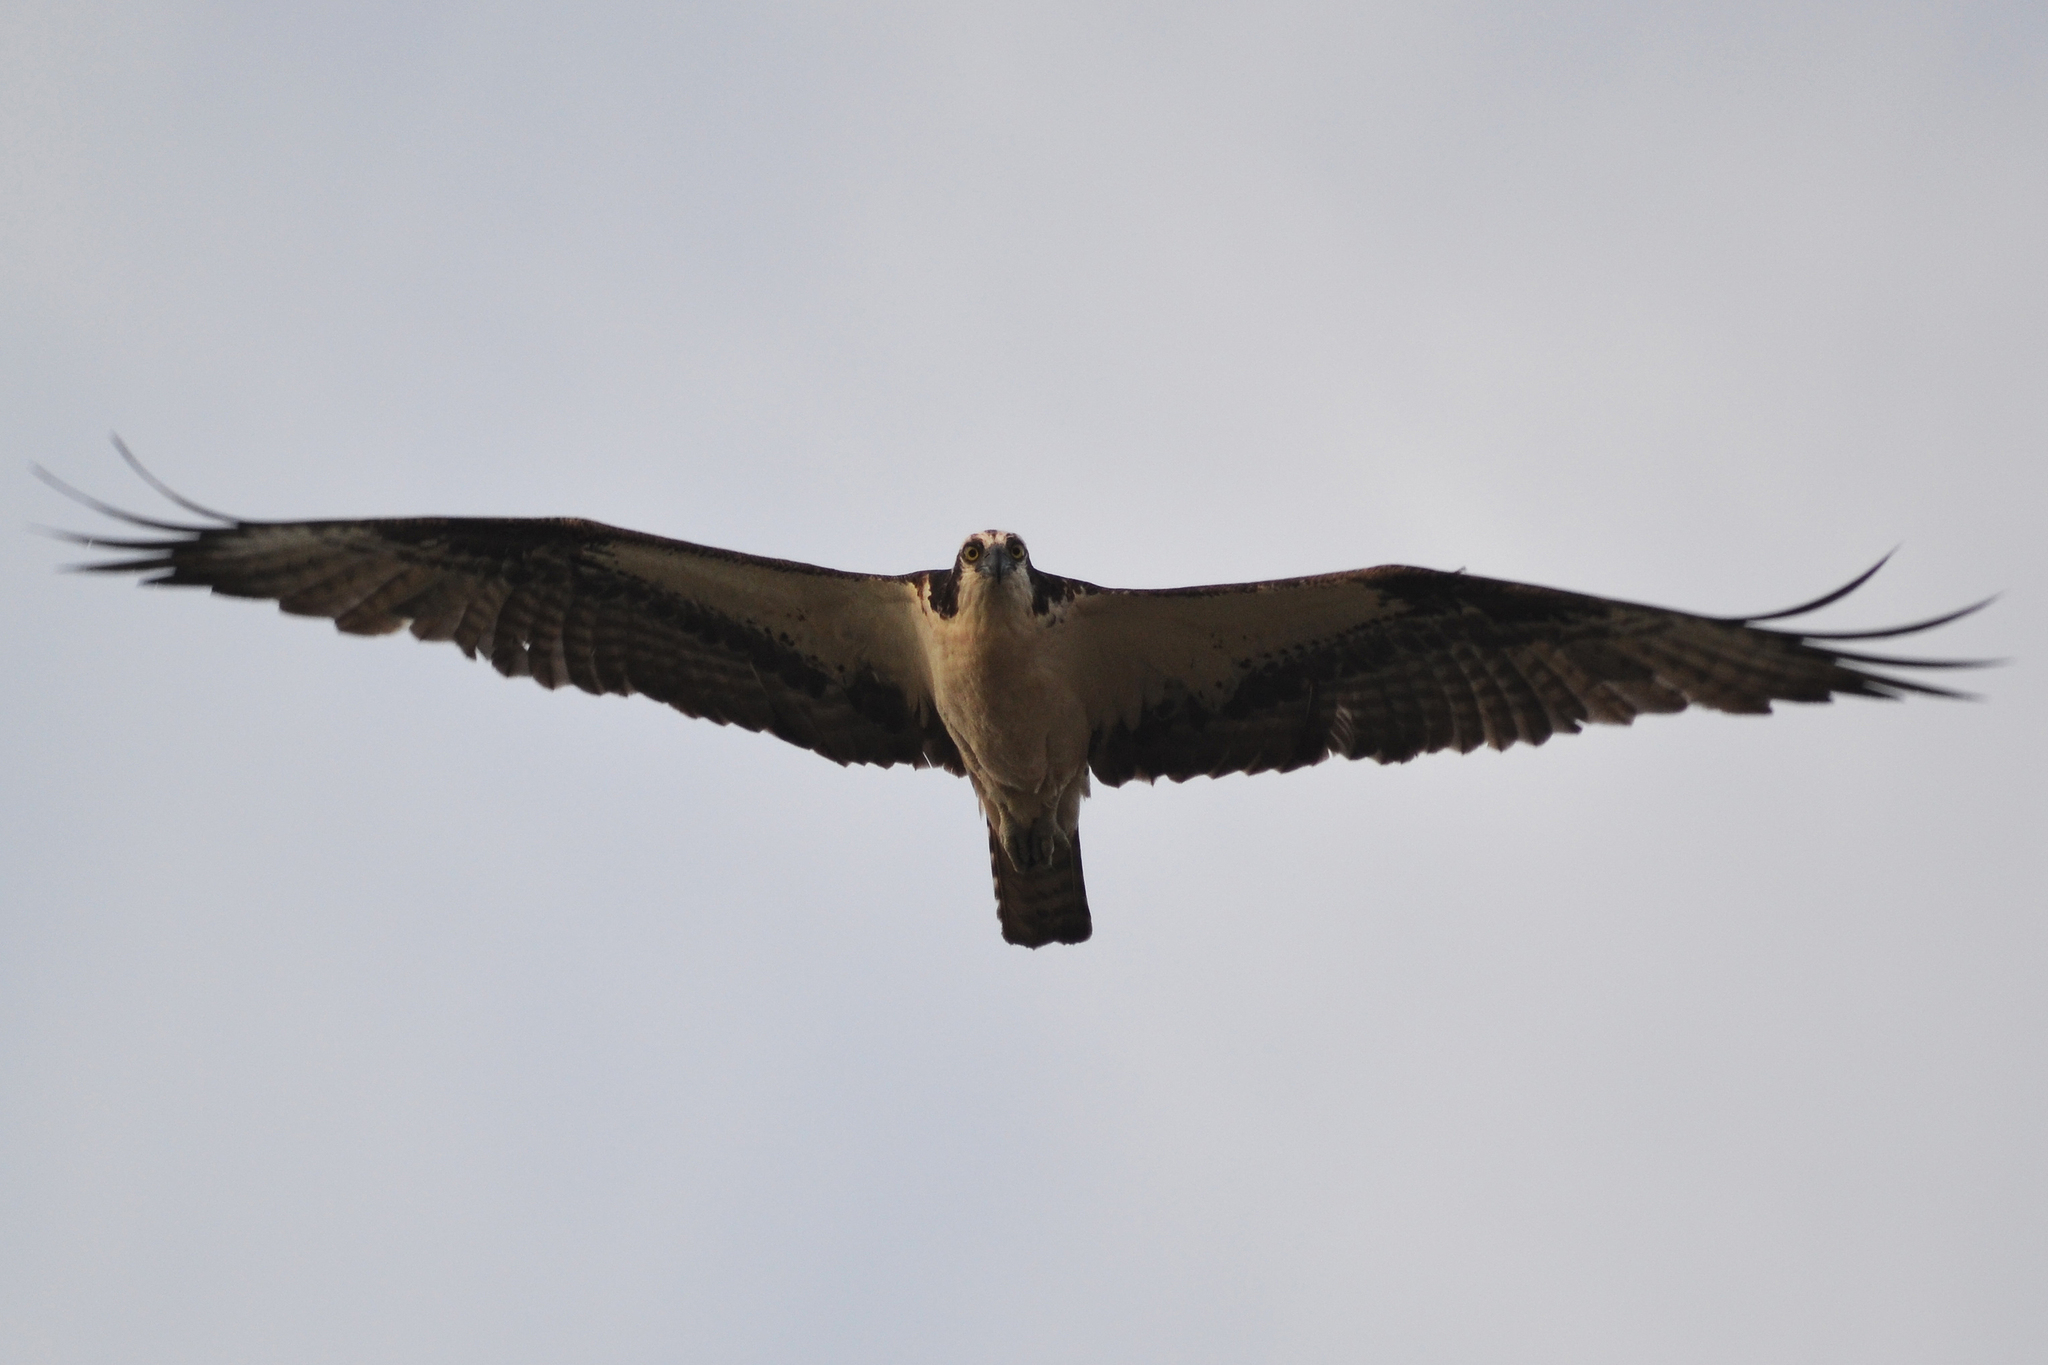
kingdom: Animalia
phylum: Chordata
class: Aves
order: Accipitriformes
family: Pandionidae
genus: Pandion
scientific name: Pandion haliaetus
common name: Osprey
